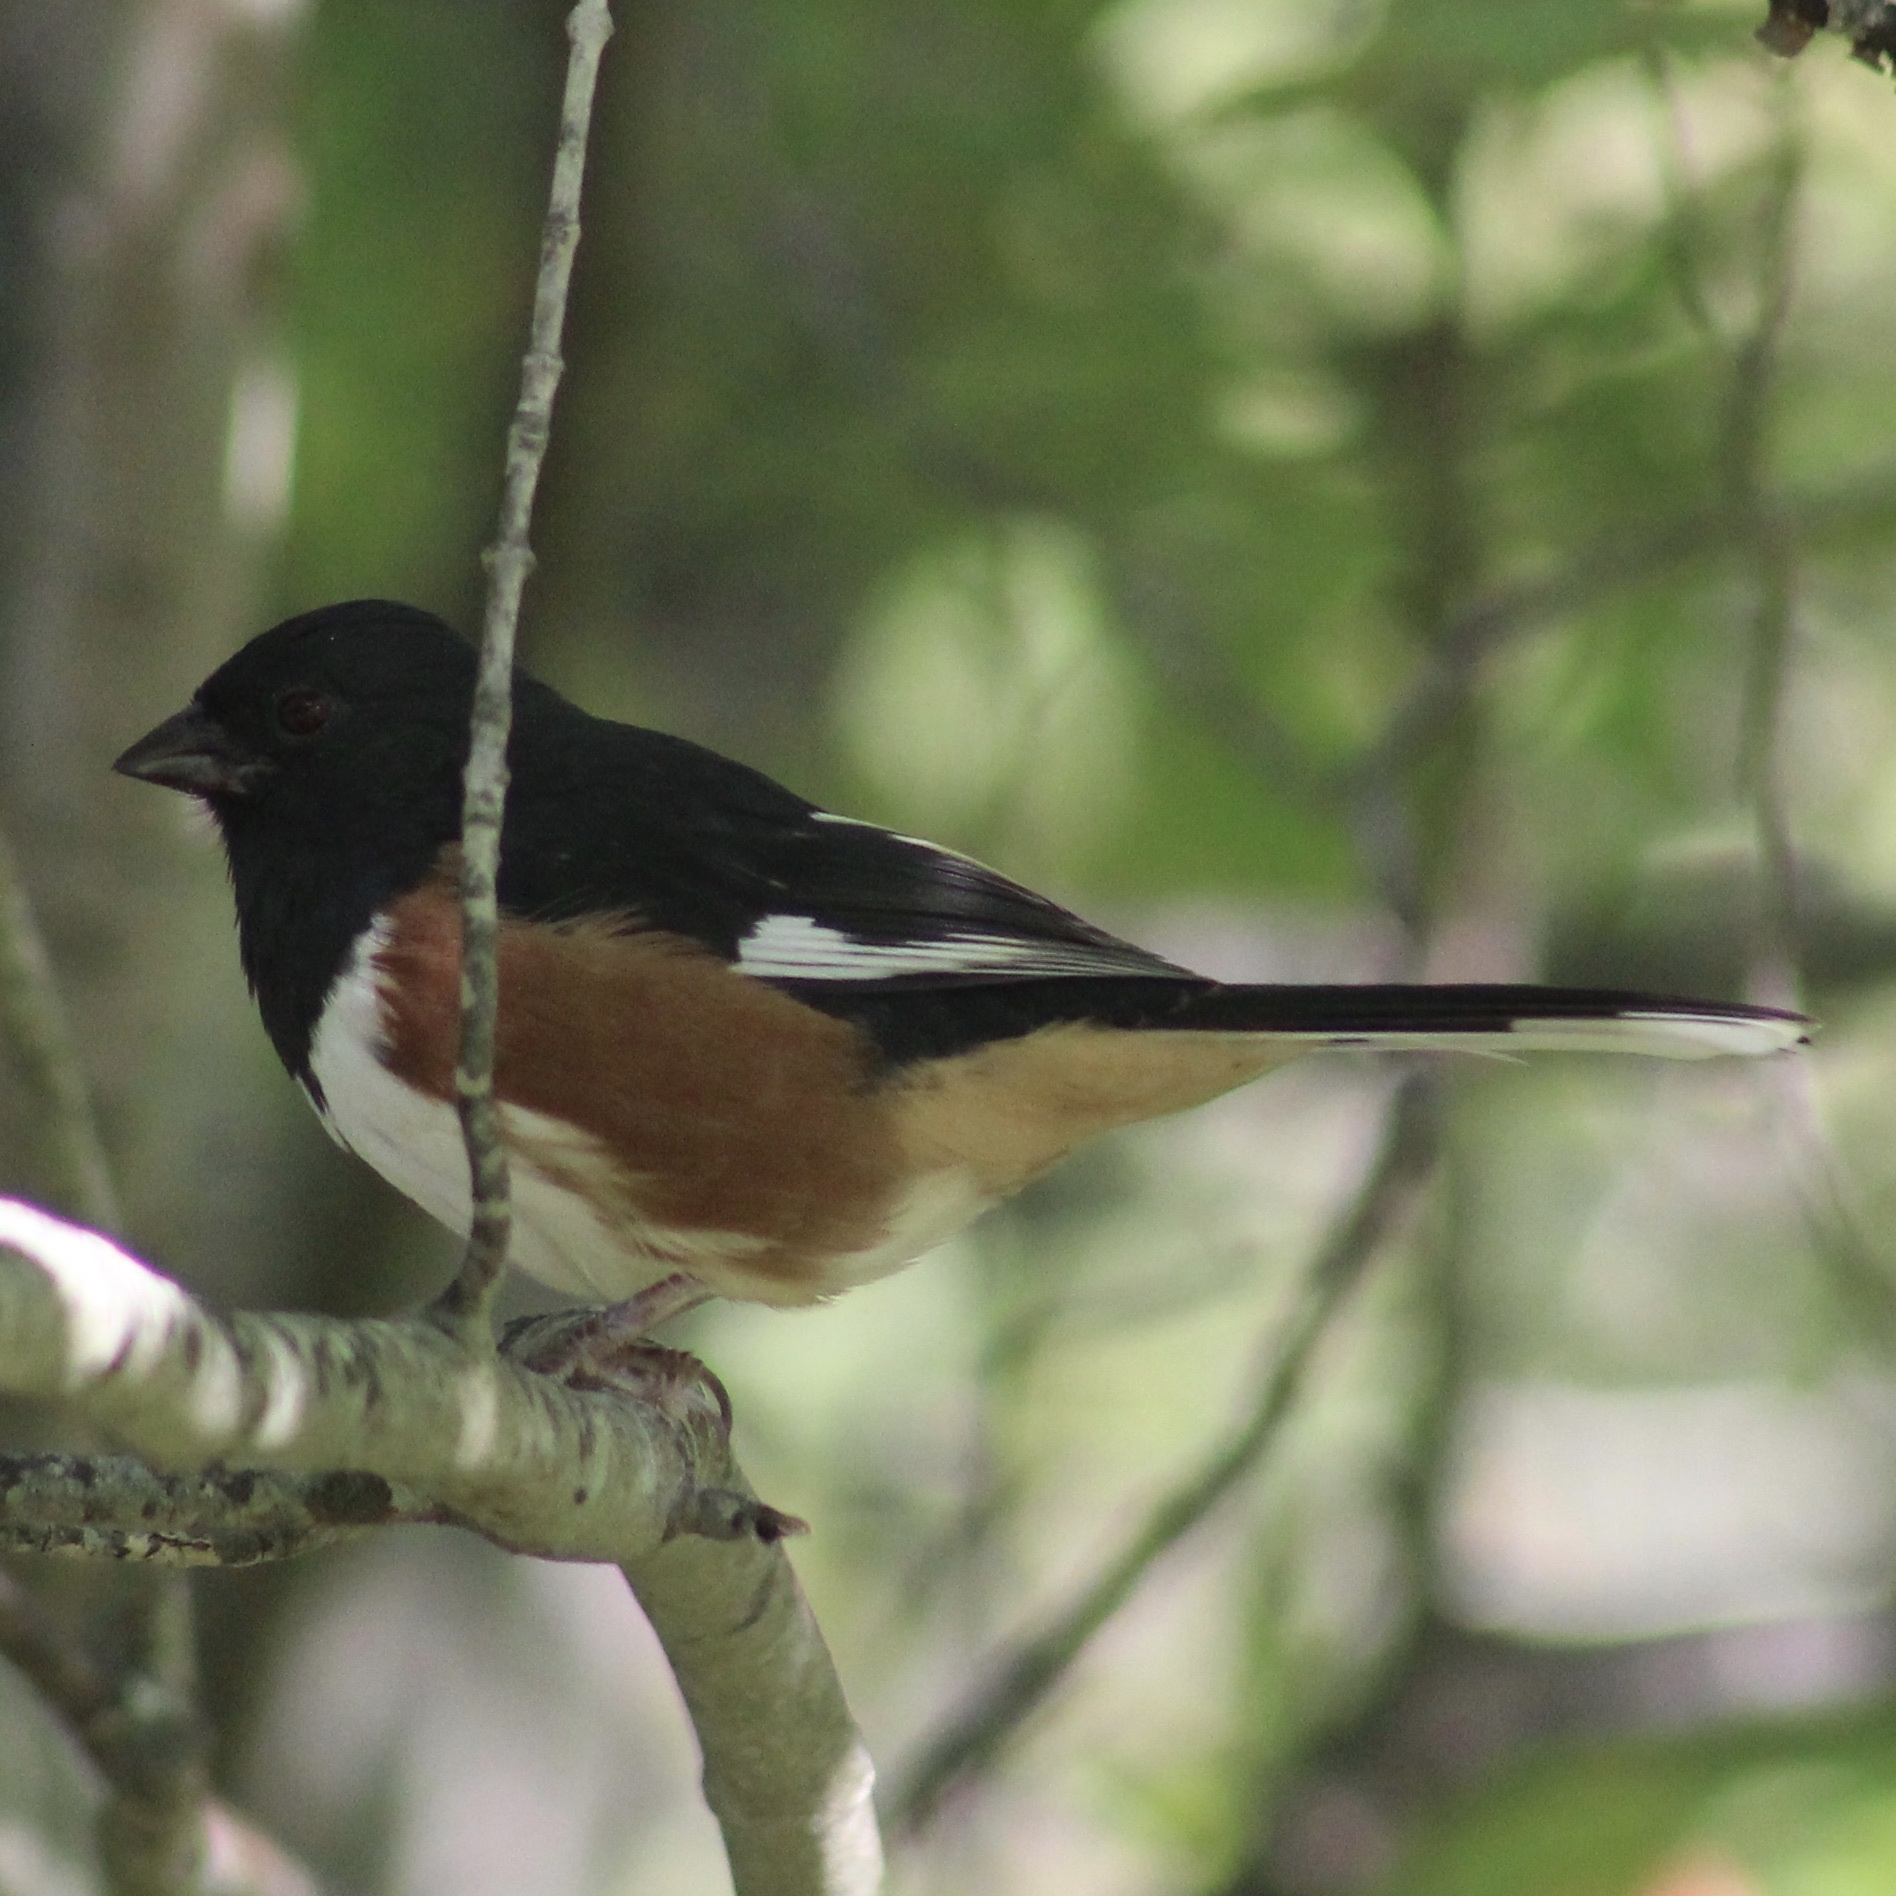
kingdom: Animalia
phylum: Chordata
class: Aves
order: Passeriformes
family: Passerellidae
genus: Pipilo
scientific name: Pipilo erythrophthalmus
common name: Eastern towhee
